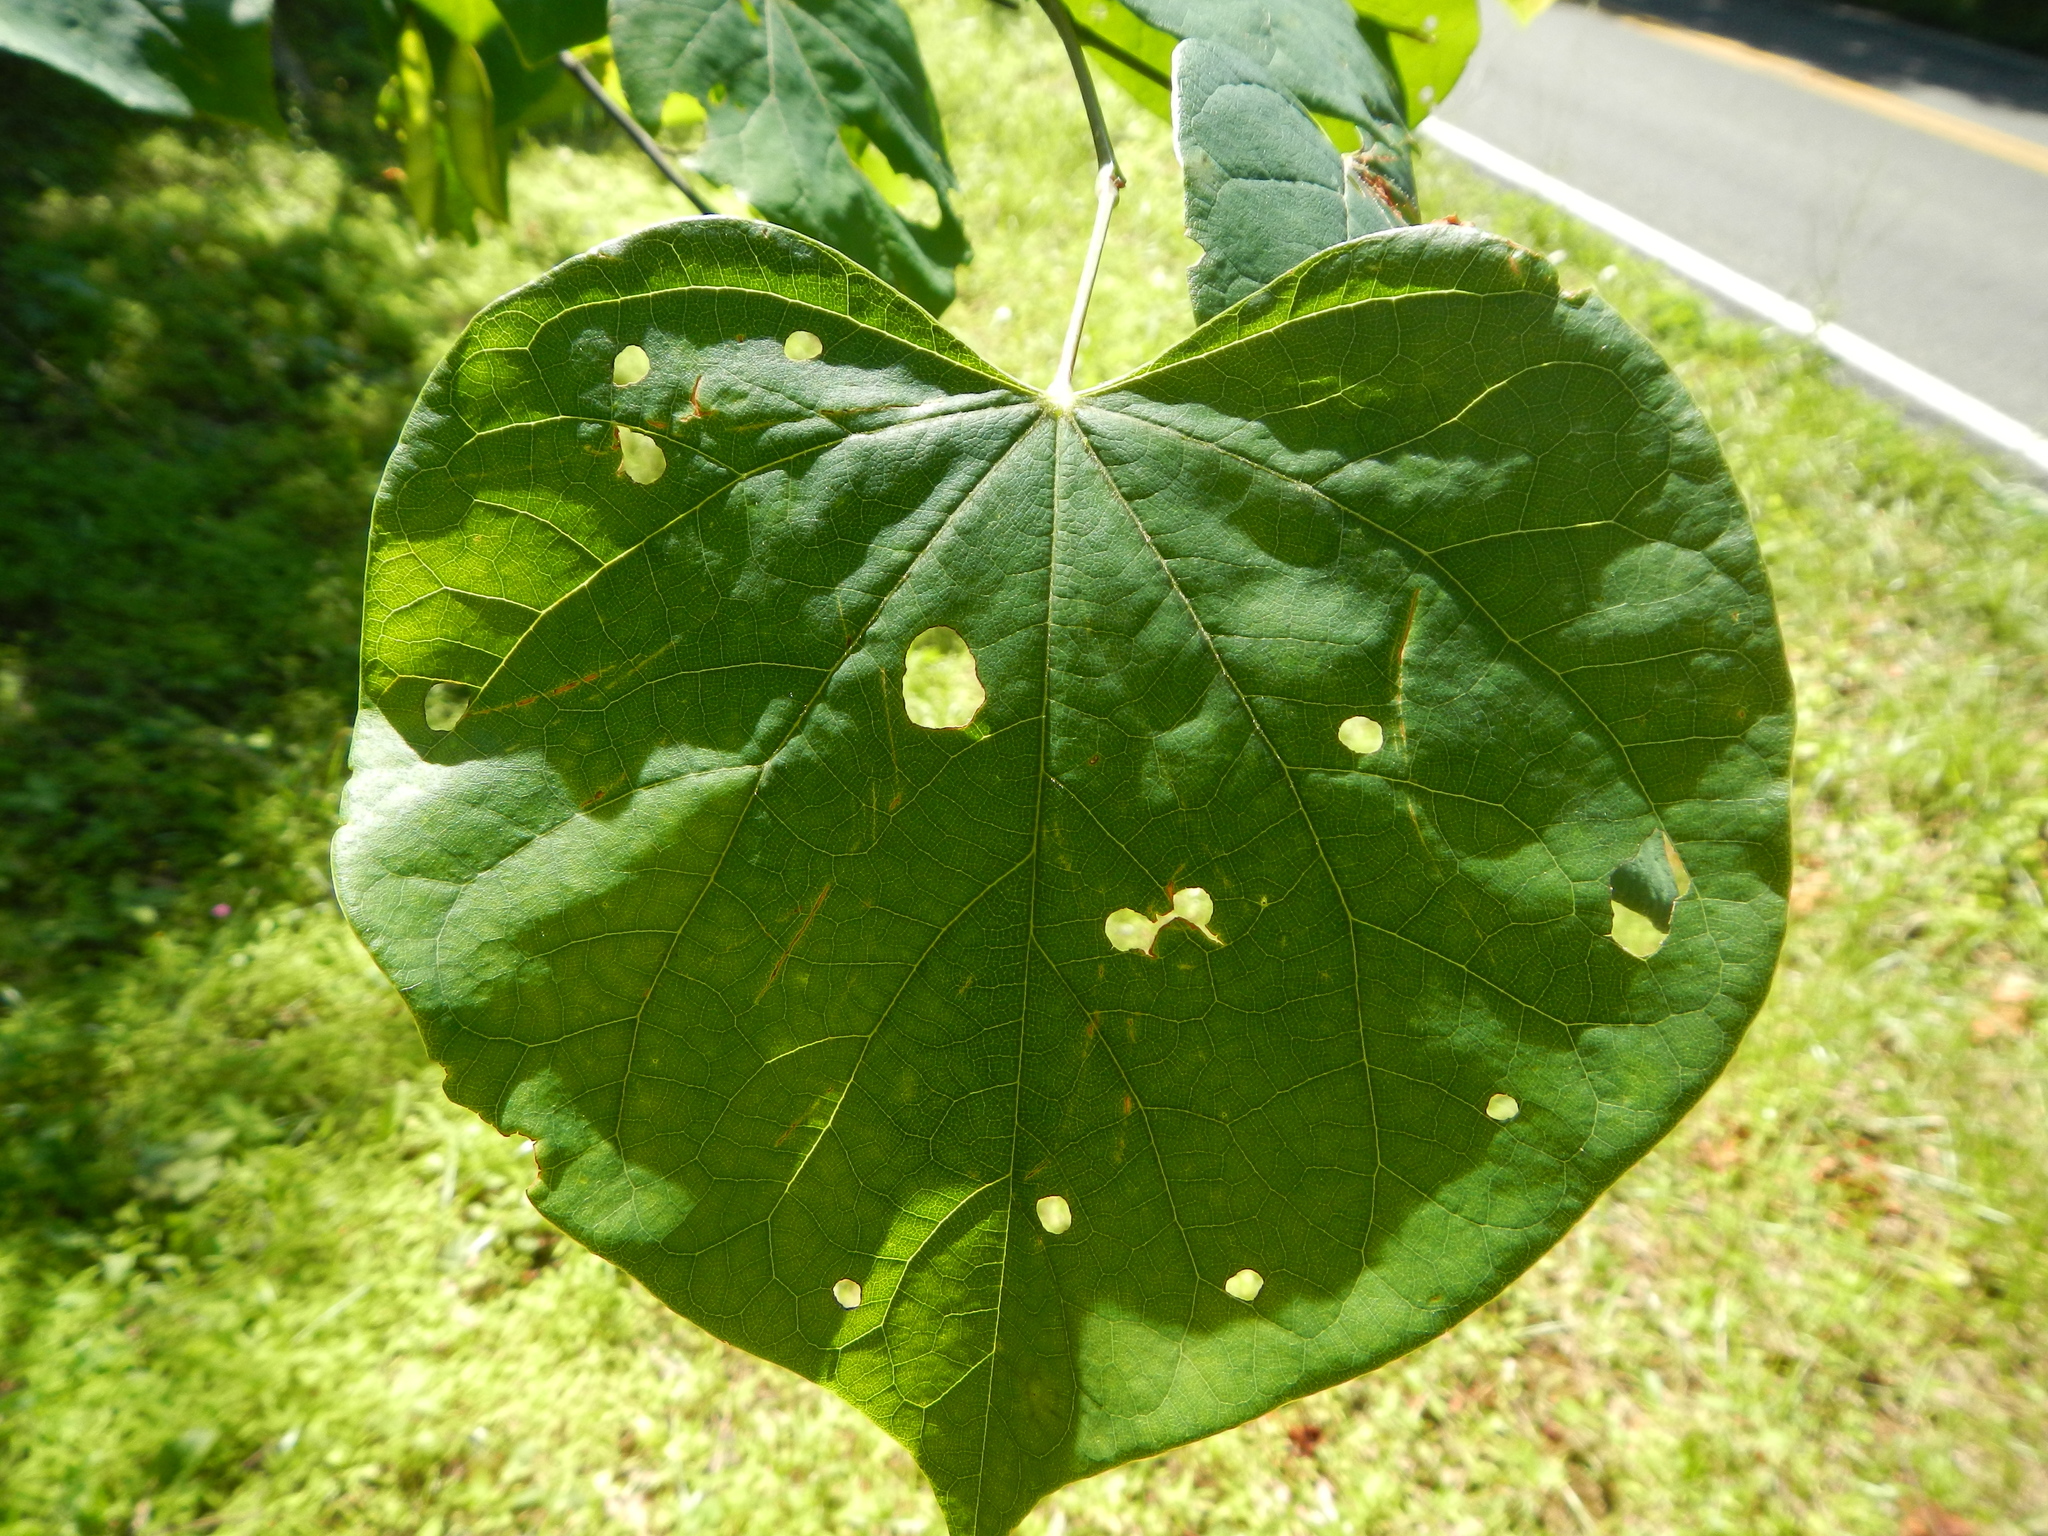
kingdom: Plantae
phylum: Tracheophyta
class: Magnoliopsida
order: Fabales
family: Fabaceae
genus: Cercis
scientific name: Cercis canadensis
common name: Eastern redbud
